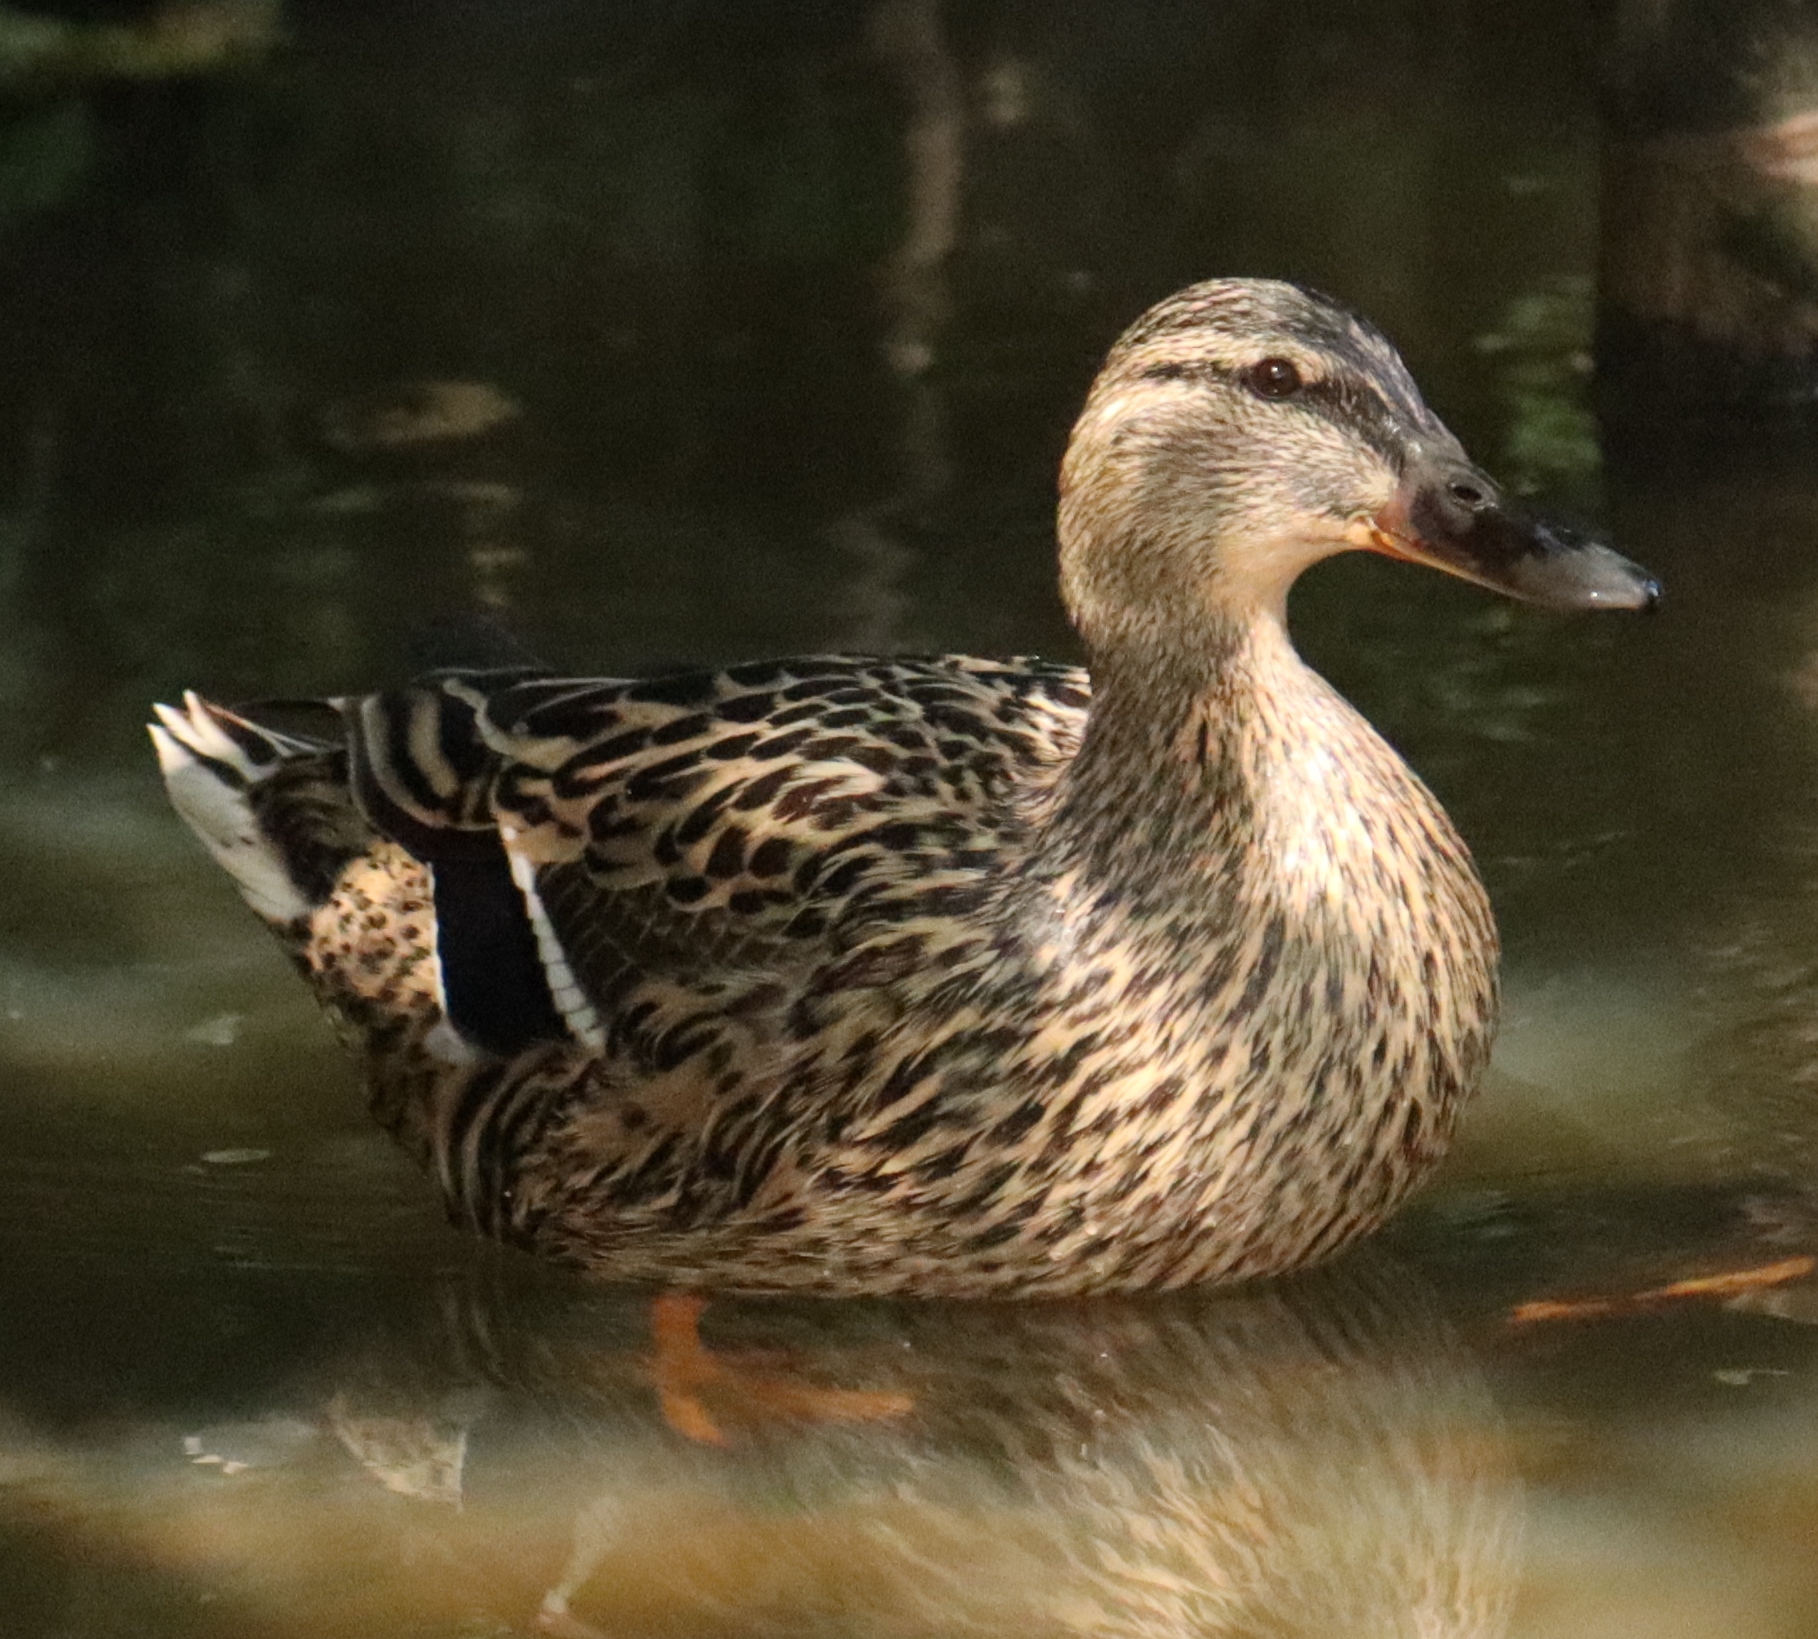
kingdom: Animalia
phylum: Chordata
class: Aves
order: Anseriformes
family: Anatidae
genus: Anas
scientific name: Anas platyrhynchos
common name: Mallard
